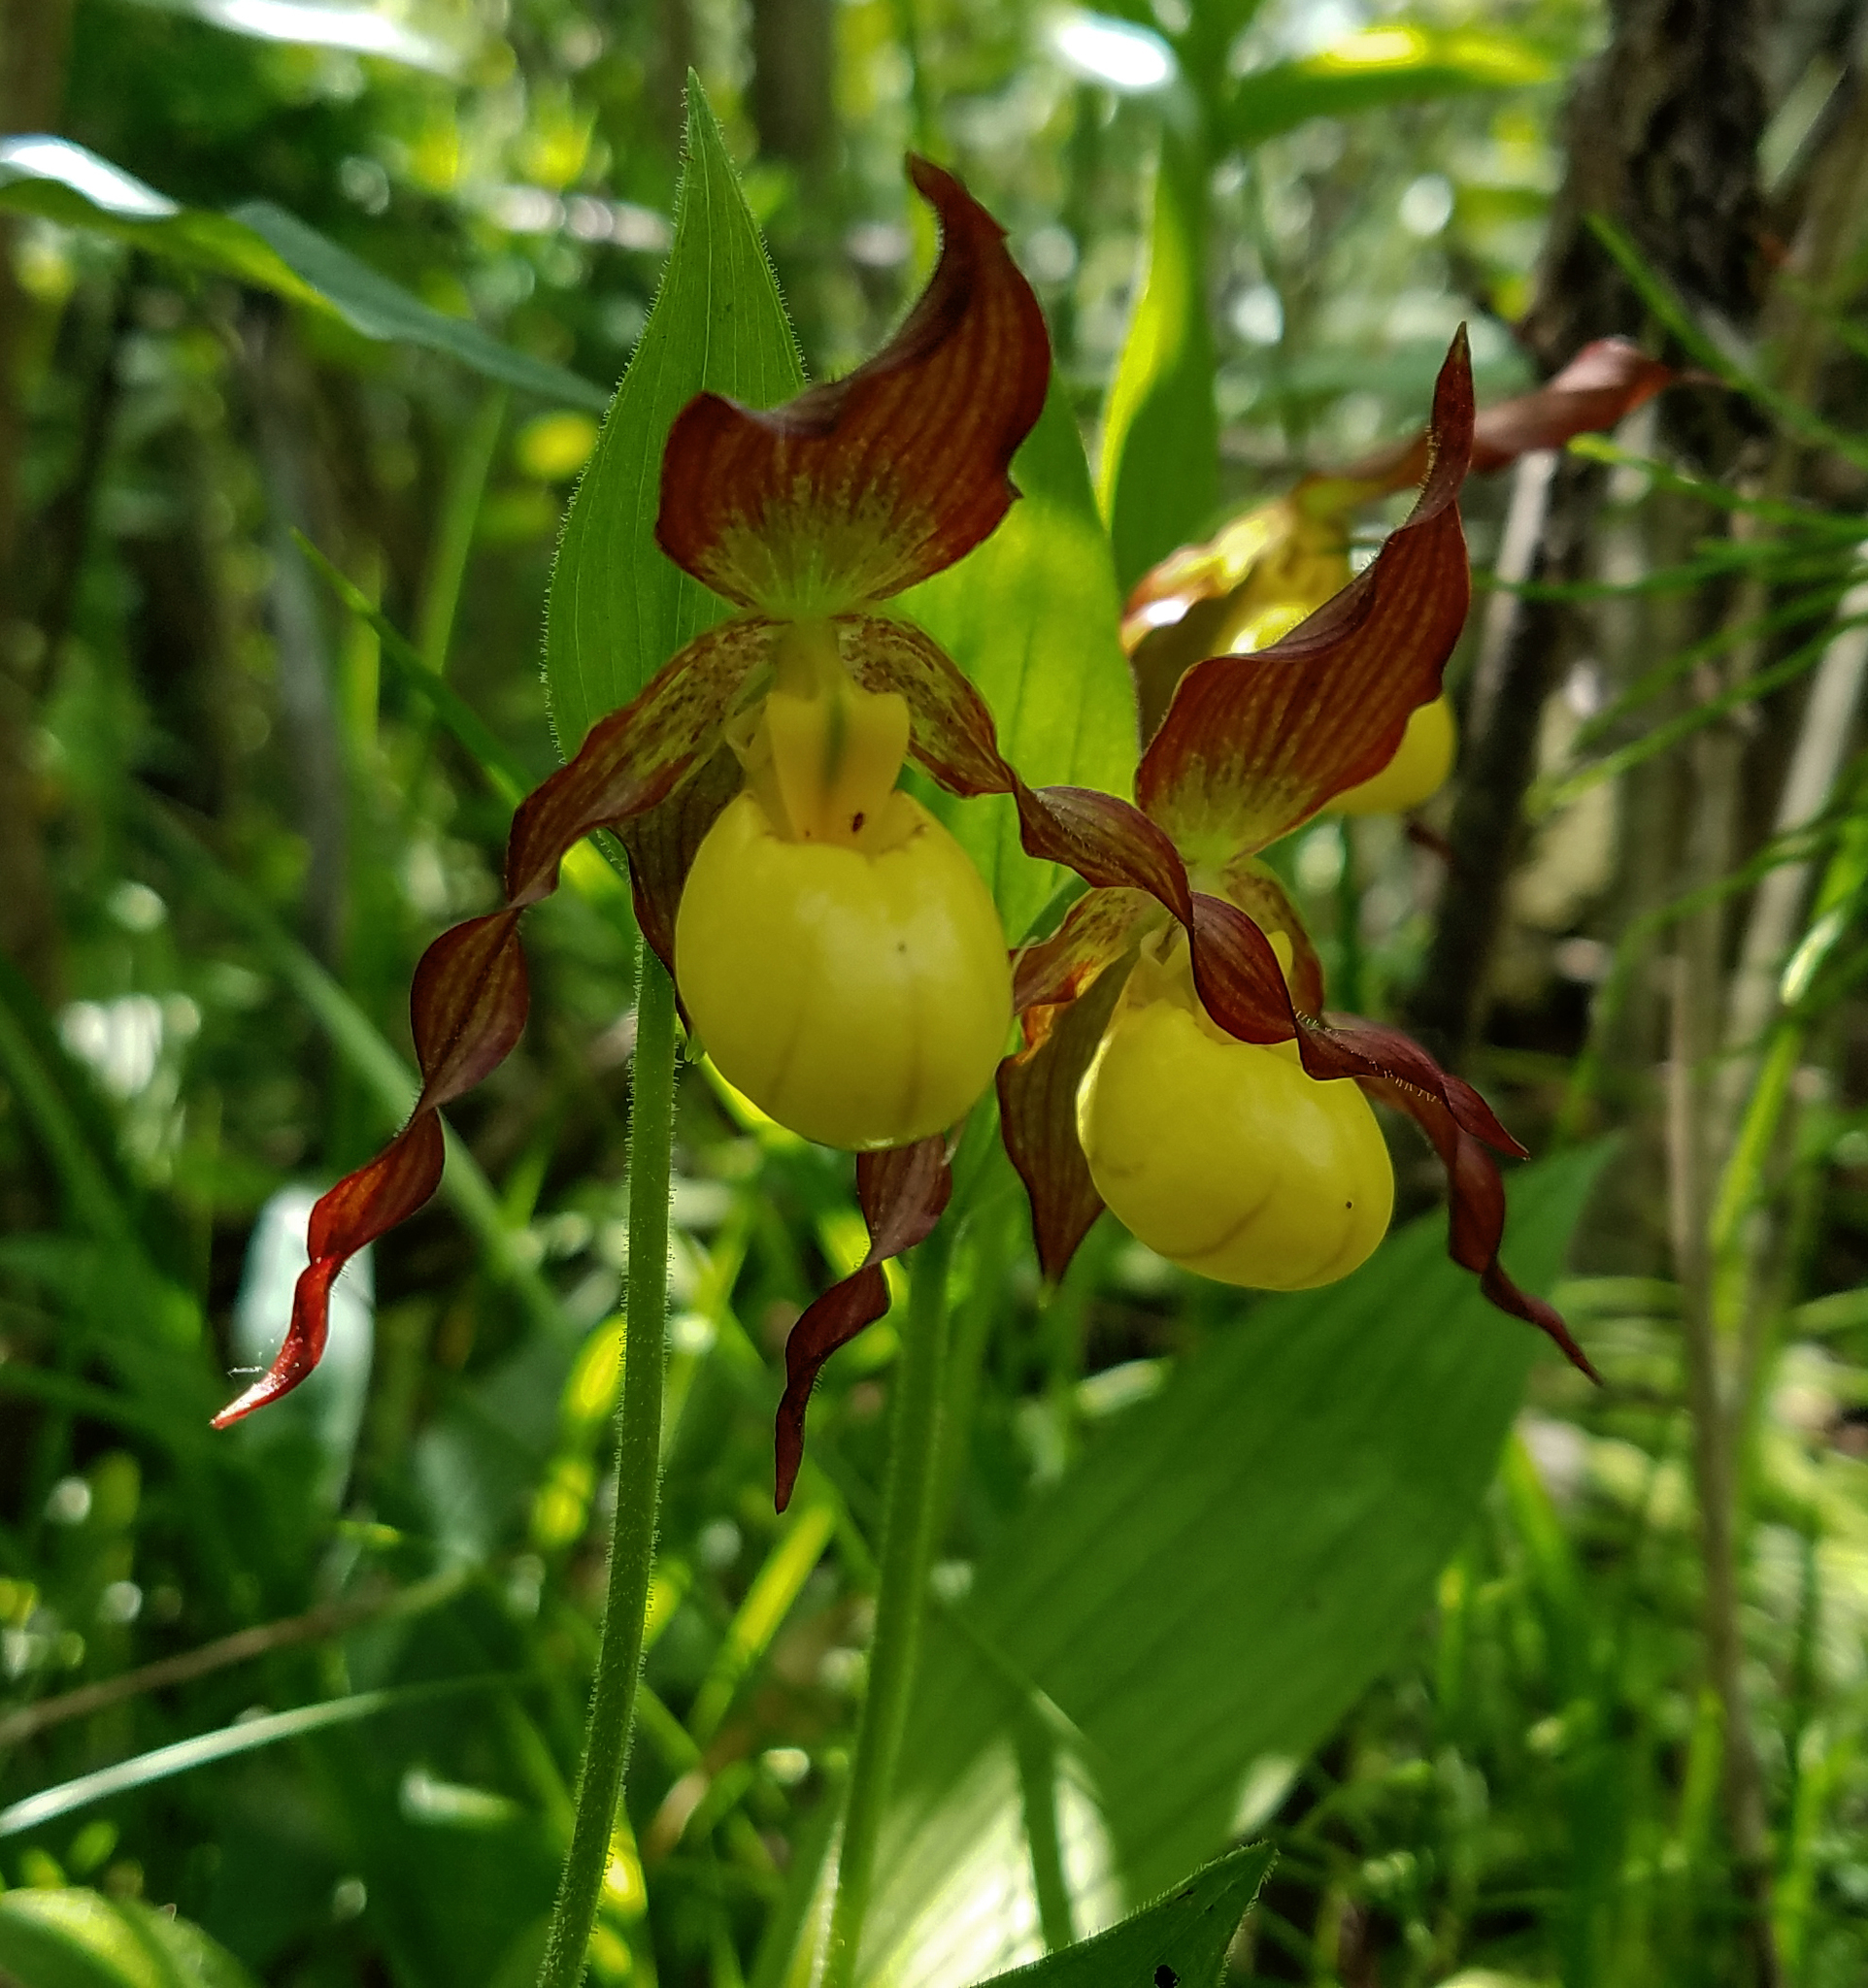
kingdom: Plantae
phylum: Tracheophyta
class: Liliopsida
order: Asparagales
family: Orchidaceae
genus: Cypripedium
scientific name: Cypripedium parviflorum
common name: American yellow lady's-slipper
